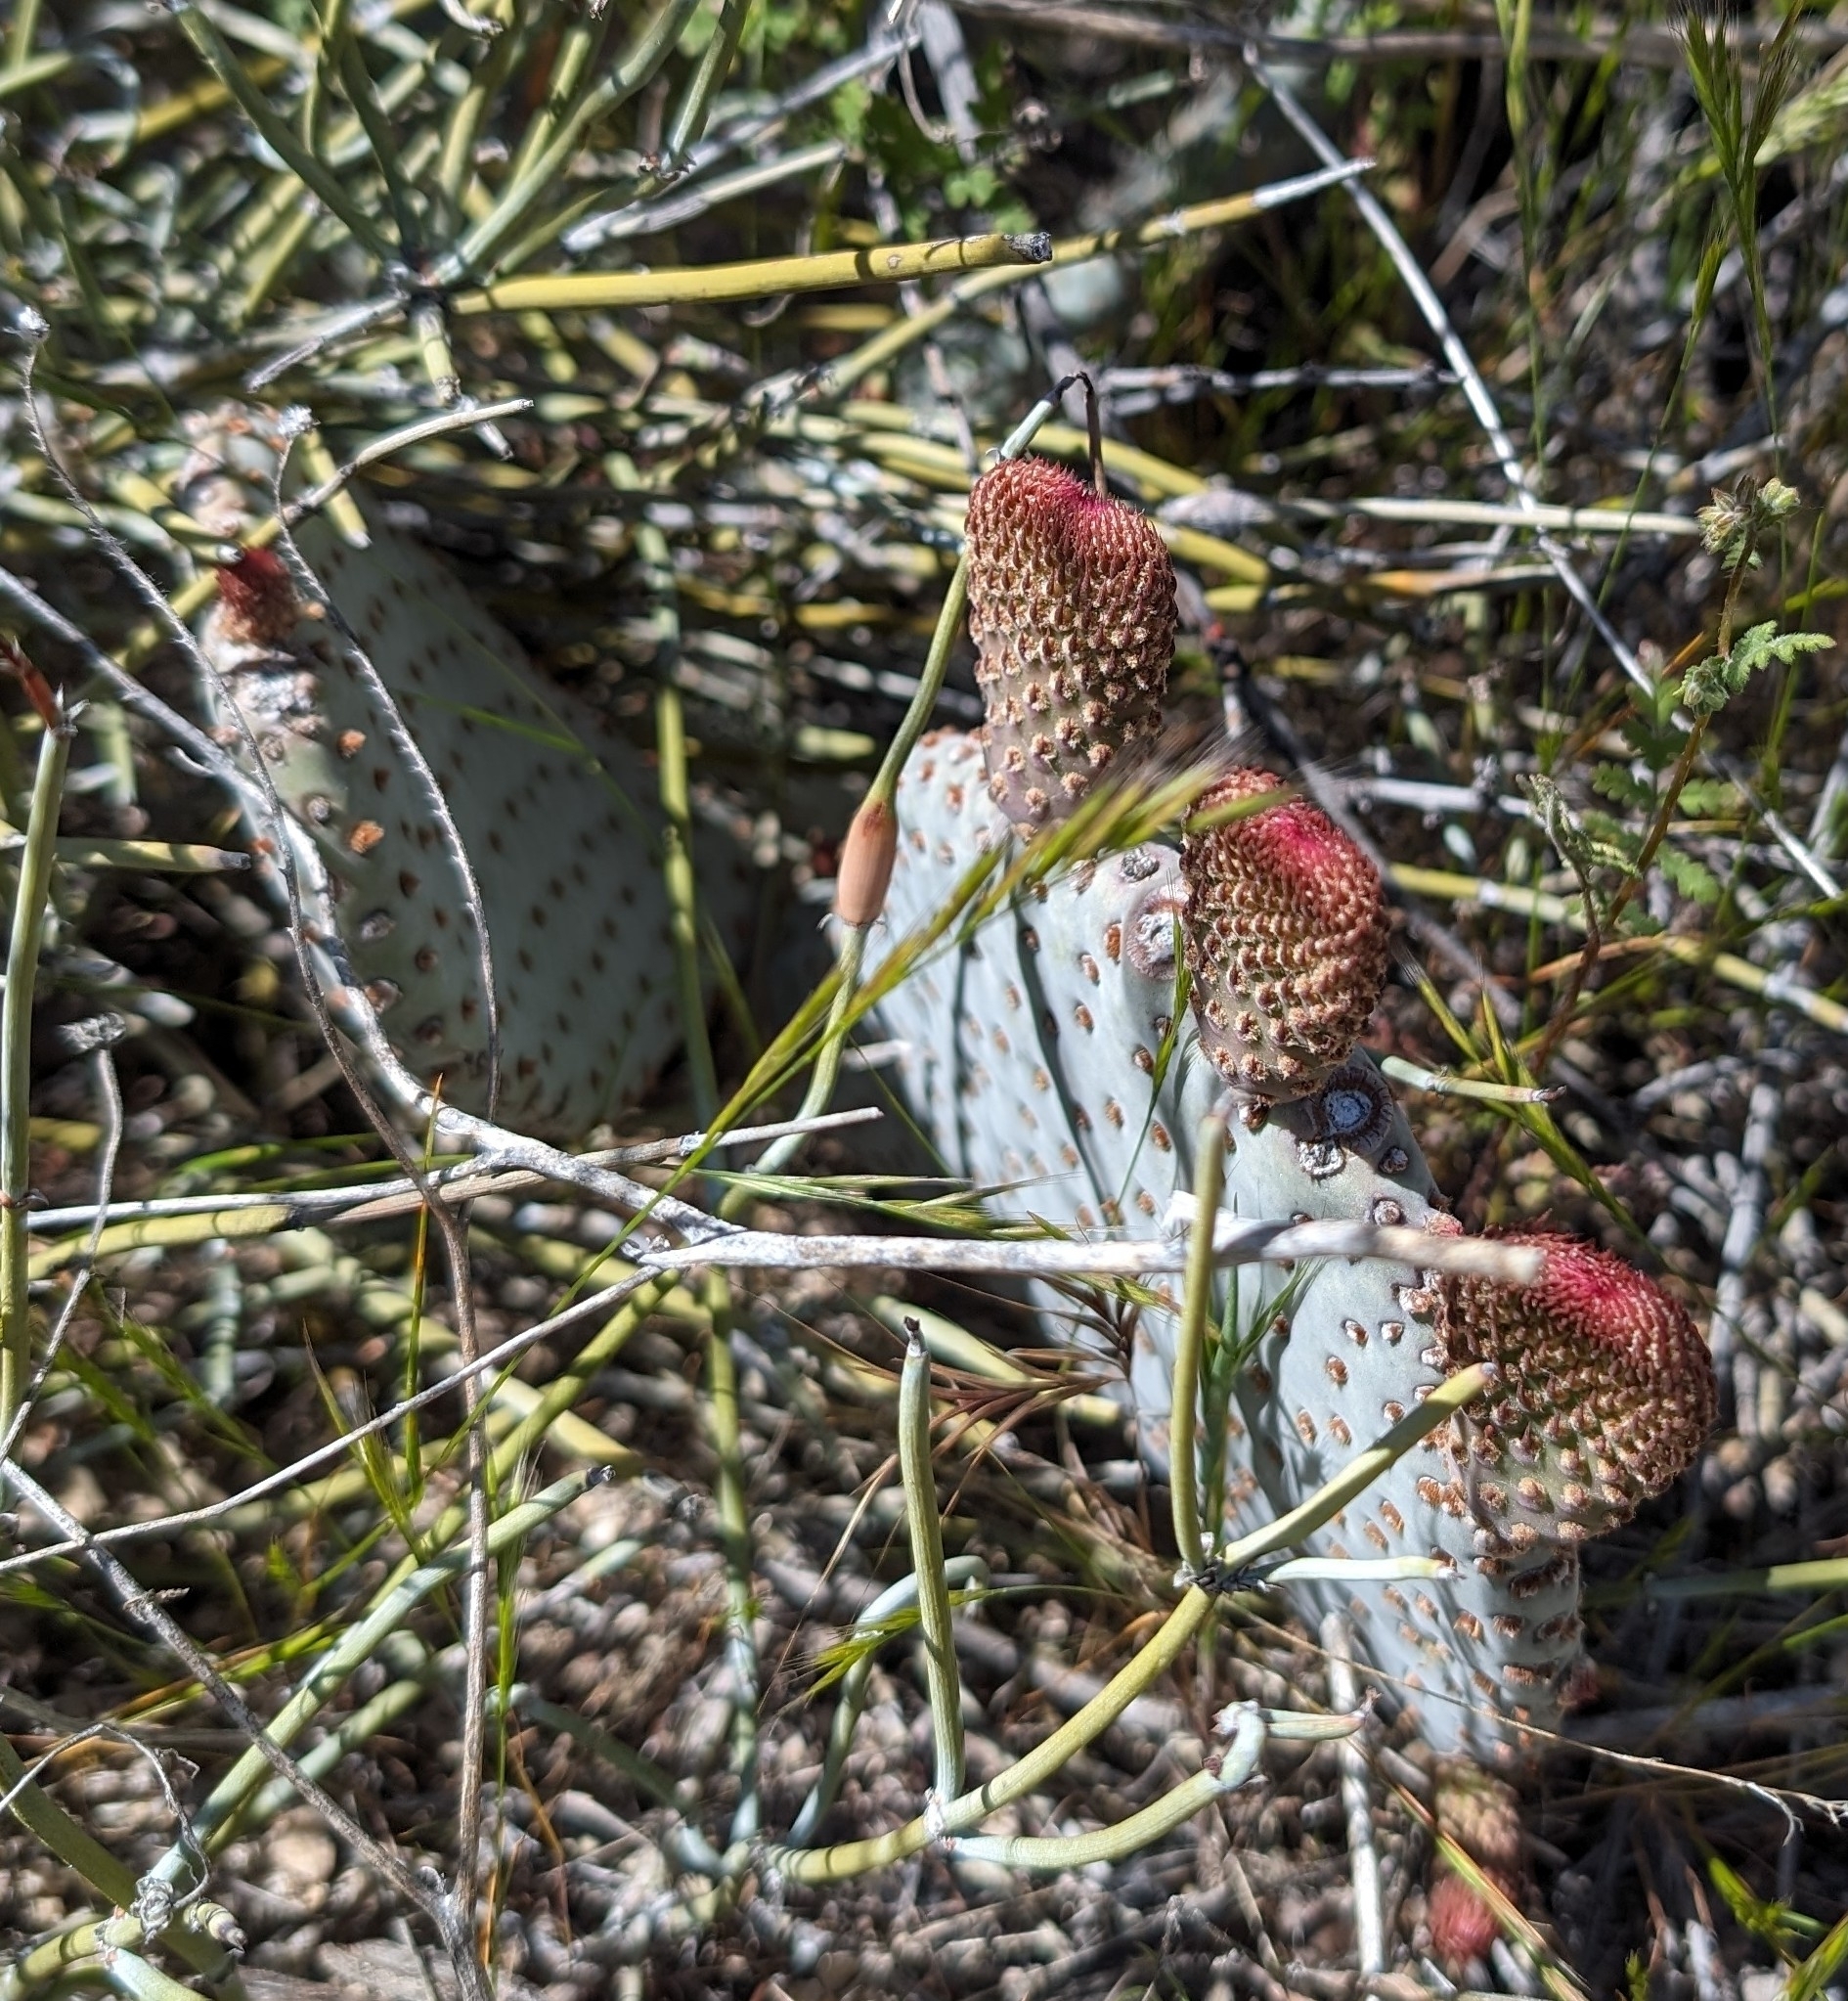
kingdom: Plantae
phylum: Tracheophyta
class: Magnoliopsida
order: Caryophyllales
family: Cactaceae
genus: Opuntia
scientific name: Opuntia basilaris
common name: Beavertail prickly-pear
